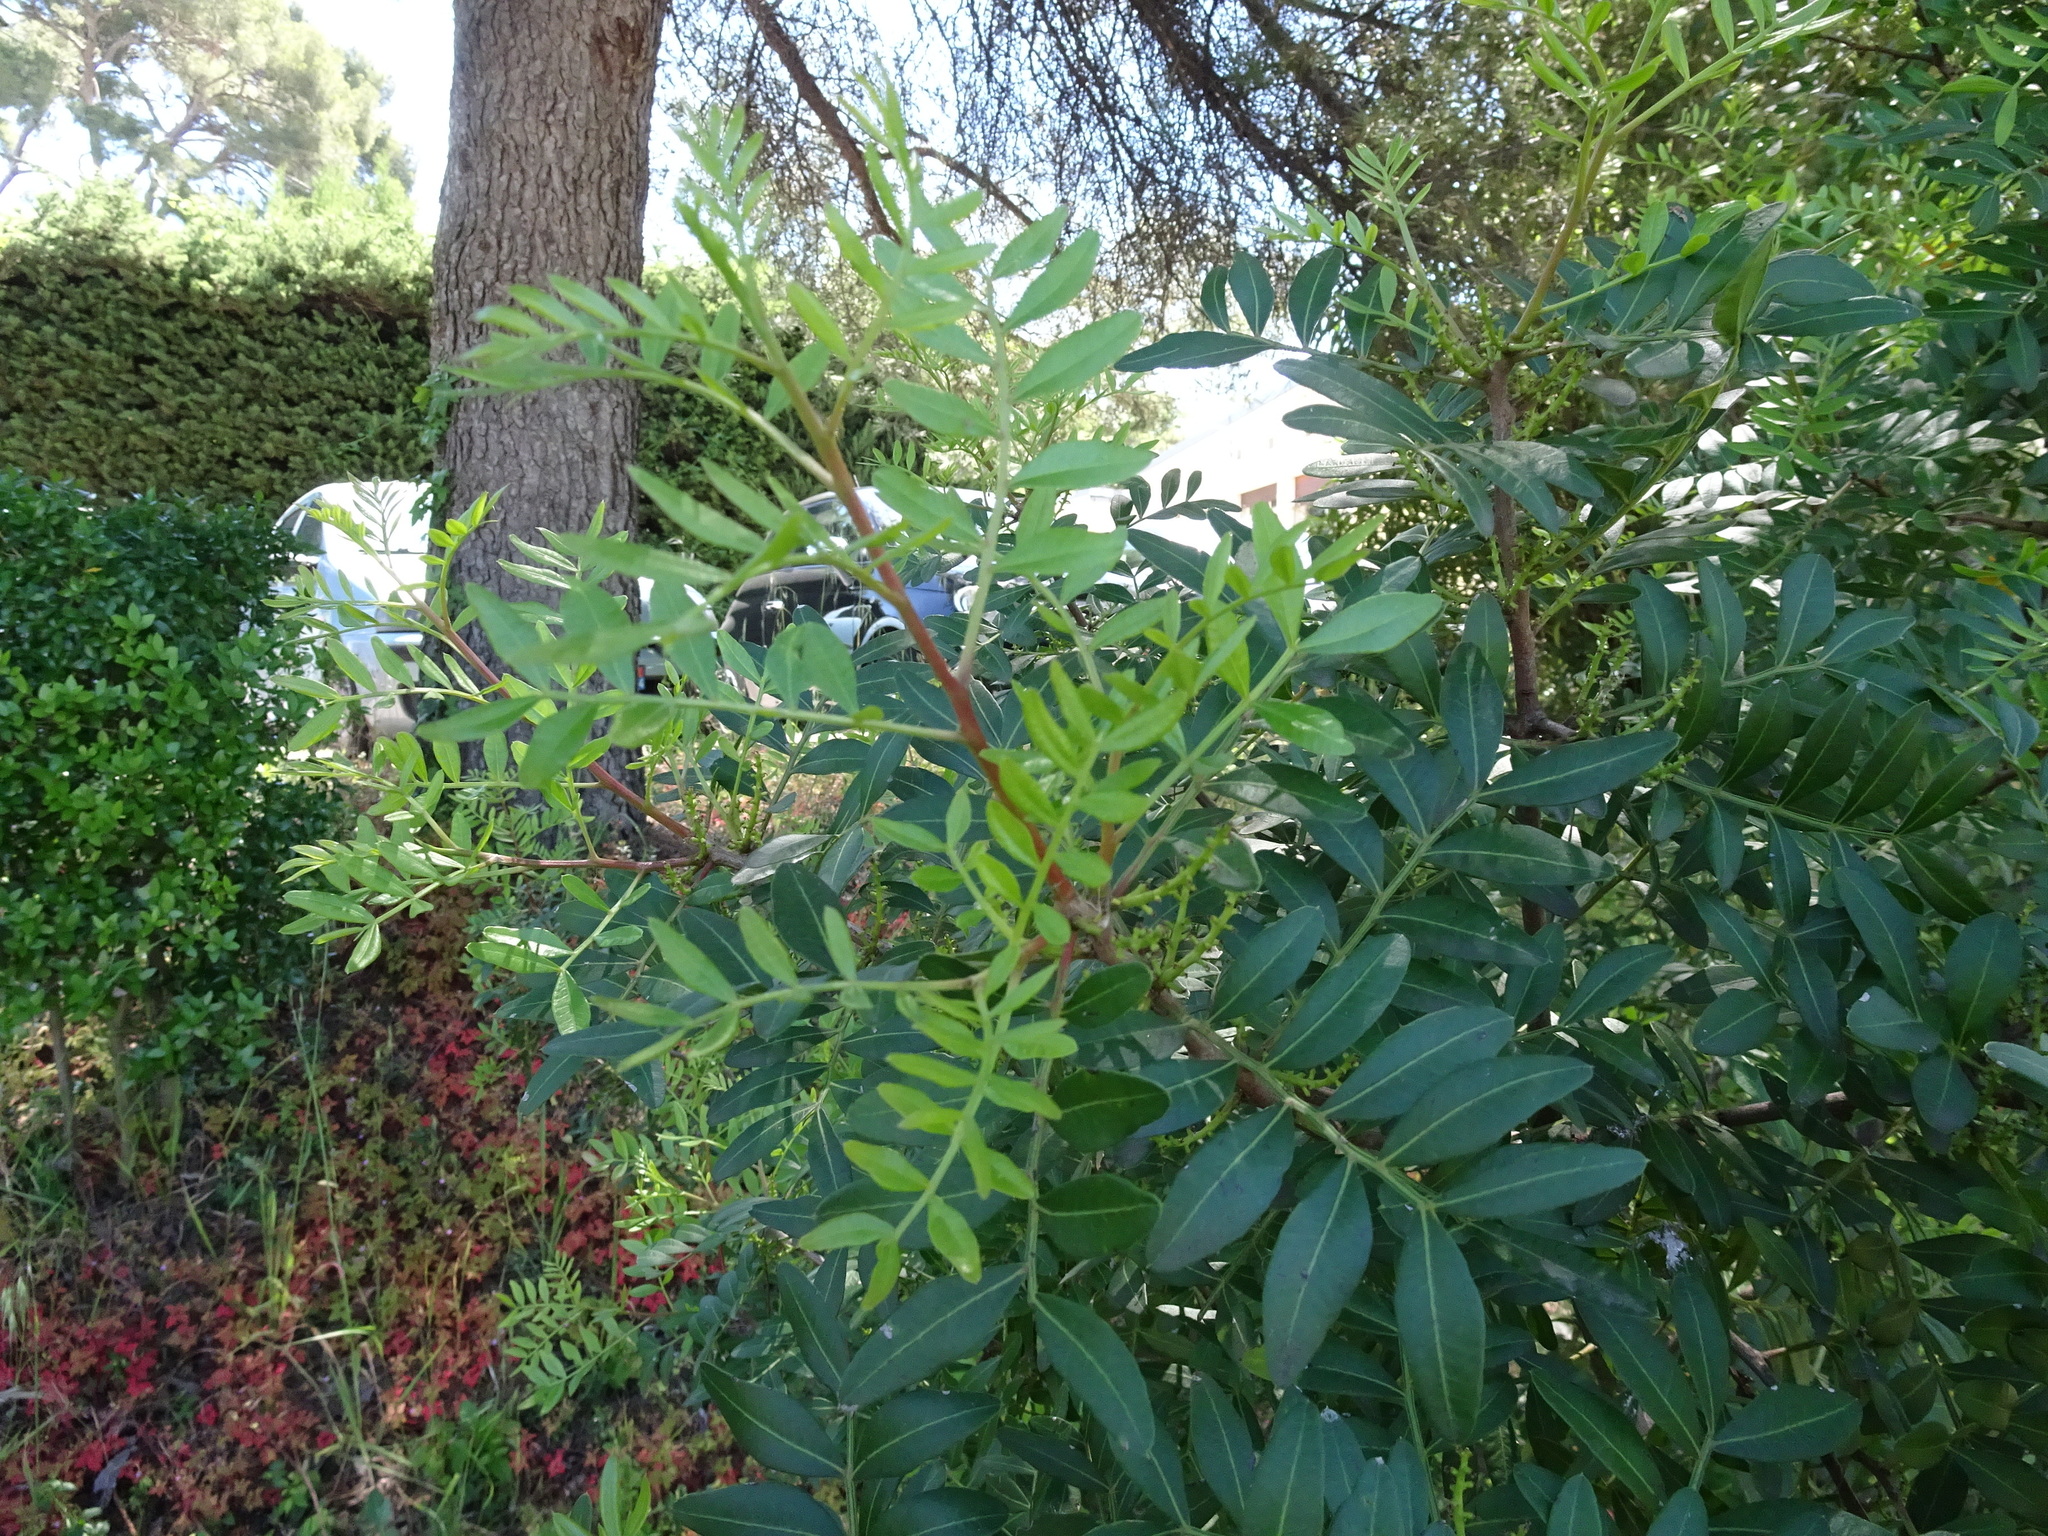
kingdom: Plantae
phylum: Tracheophyta
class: Magnoliopsida
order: Sapindales
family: Anacardiaceae
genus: Pistacia
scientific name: Pistacia lentiscus
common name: Lentisk
